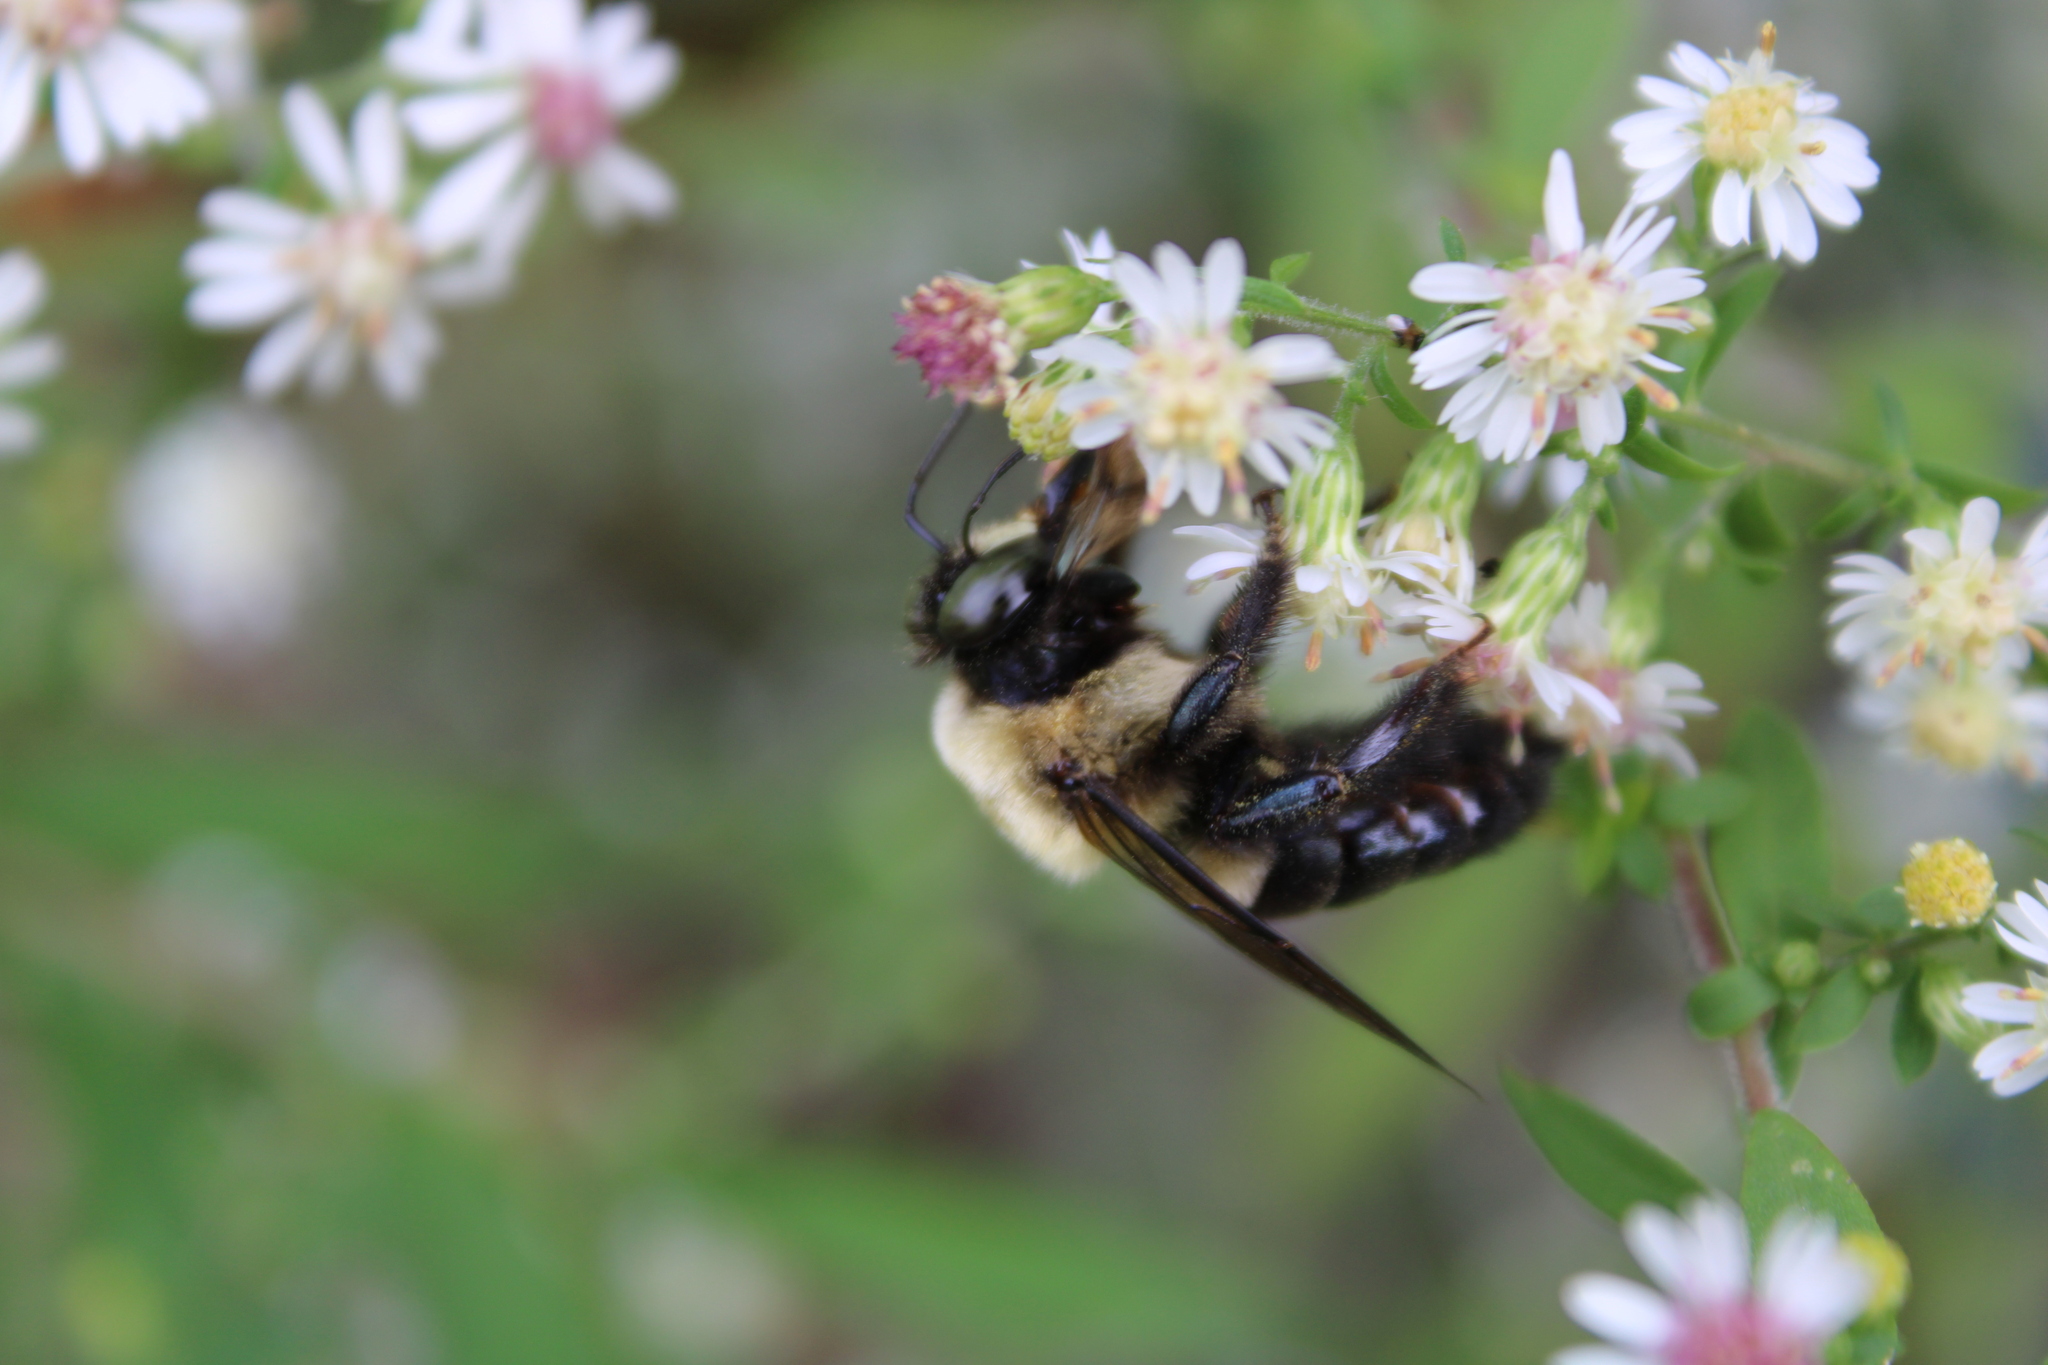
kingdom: Animalia
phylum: Arthropoda
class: Insecta
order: Hymenoptera
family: Apidae
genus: Xylocopa
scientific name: Xylocopa virginica
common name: Carpenter bee
